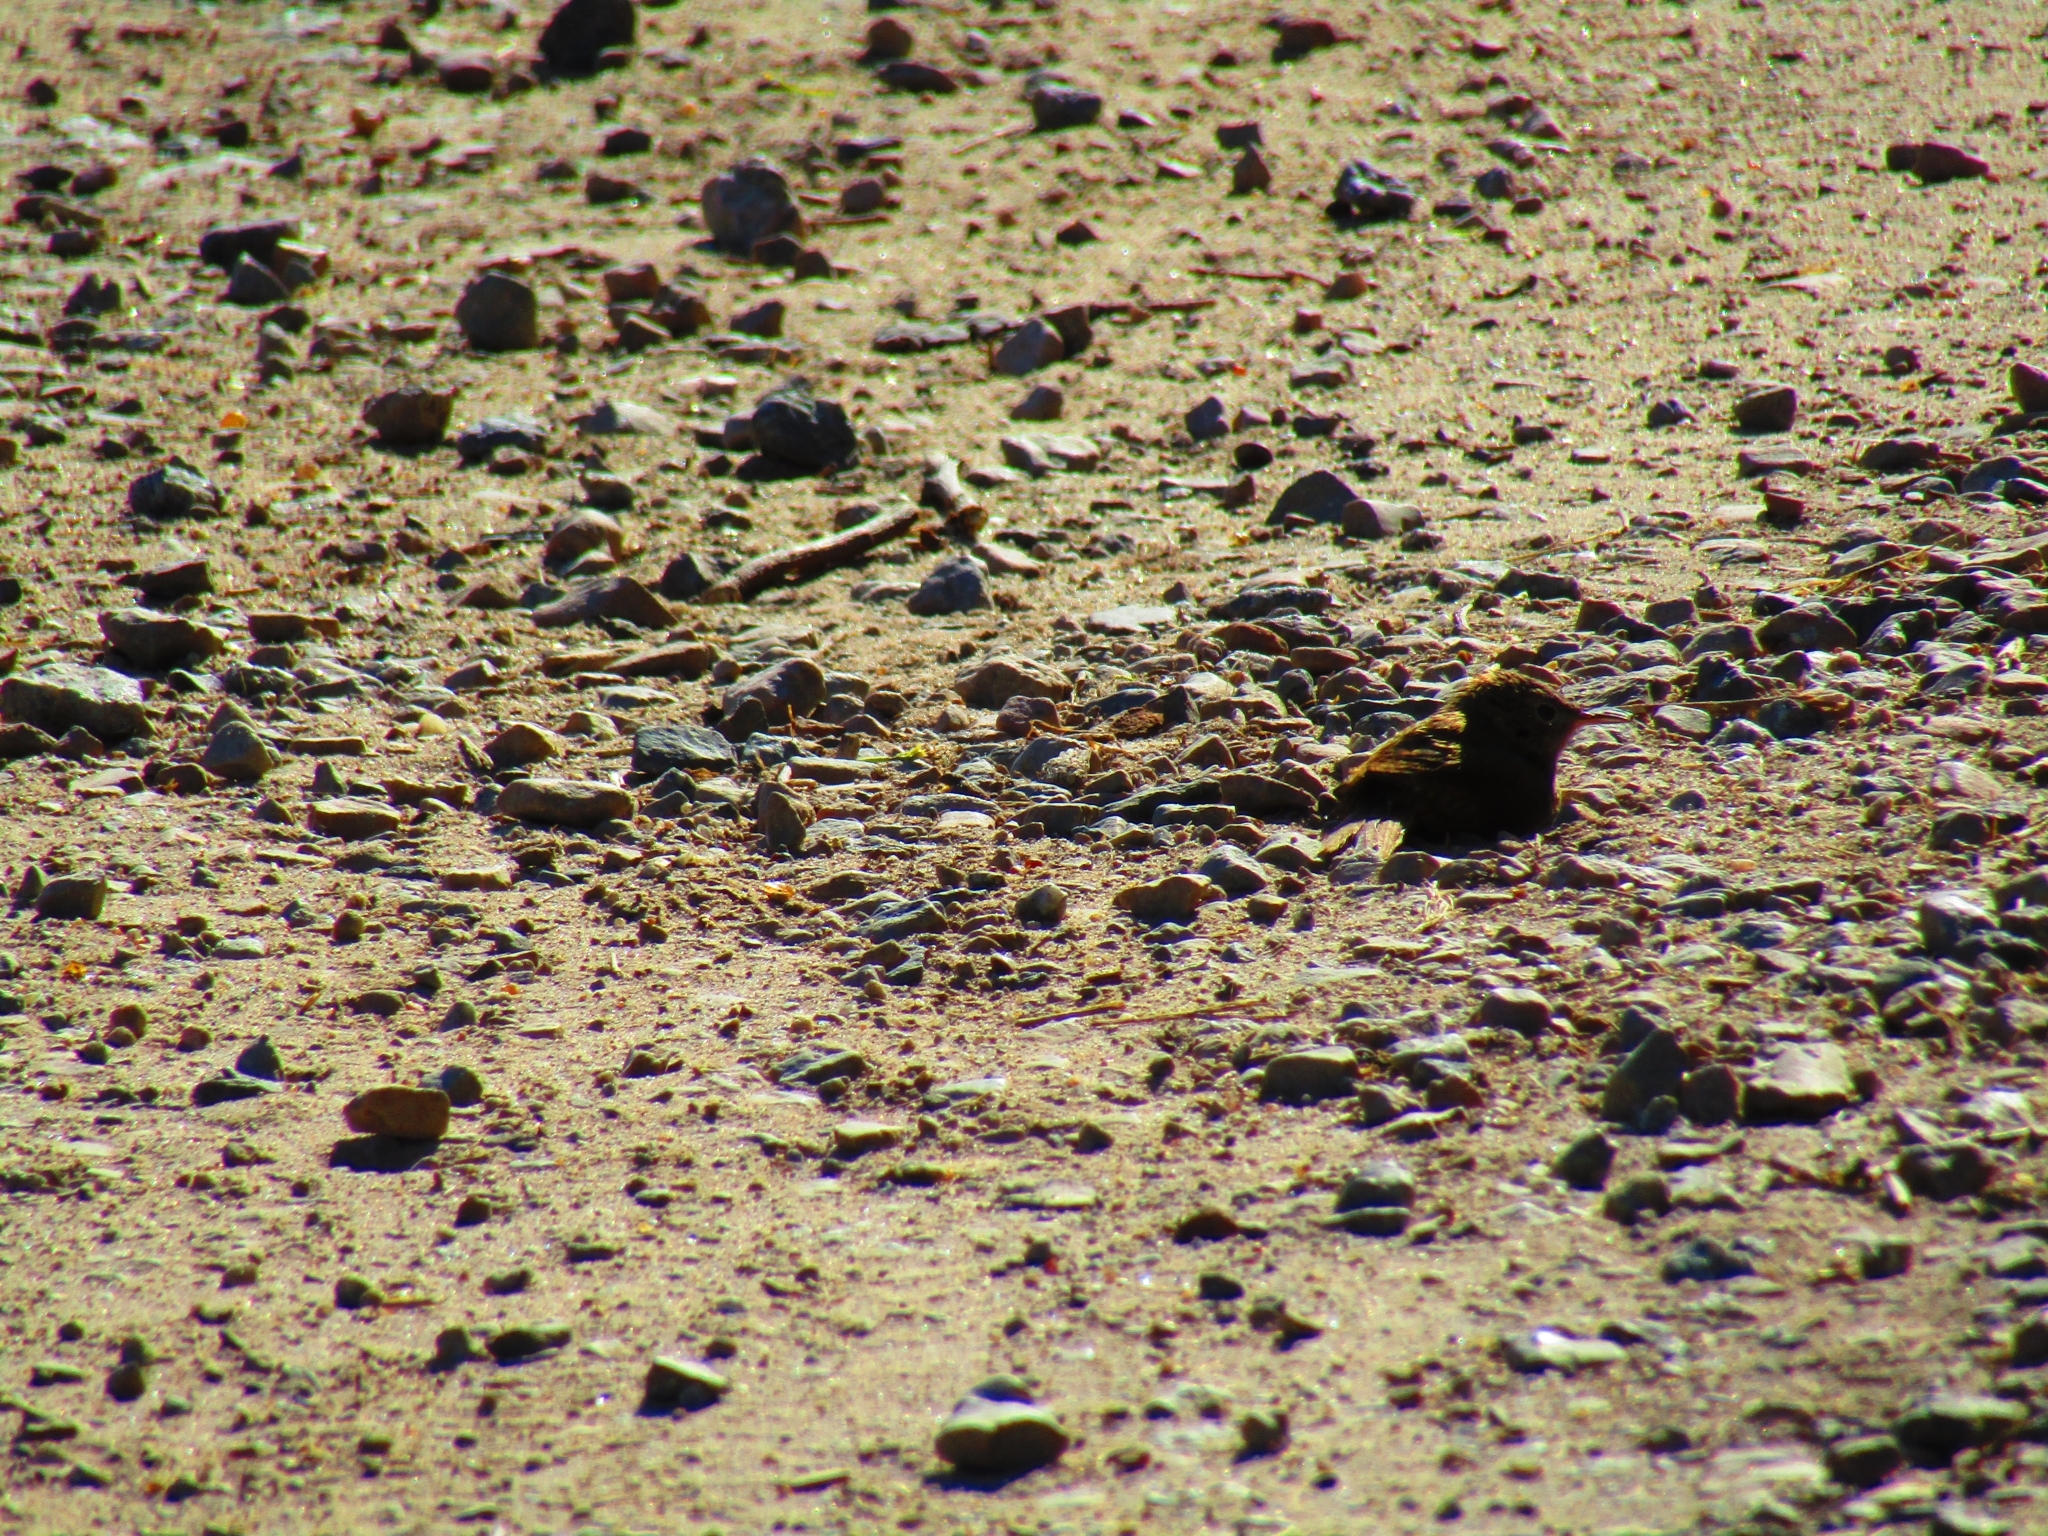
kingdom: Animalia
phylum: Chordata
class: Aves
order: Passeriformes
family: Troglodytidae
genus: Troglodytes
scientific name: Troglodytes aedon
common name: House wren
